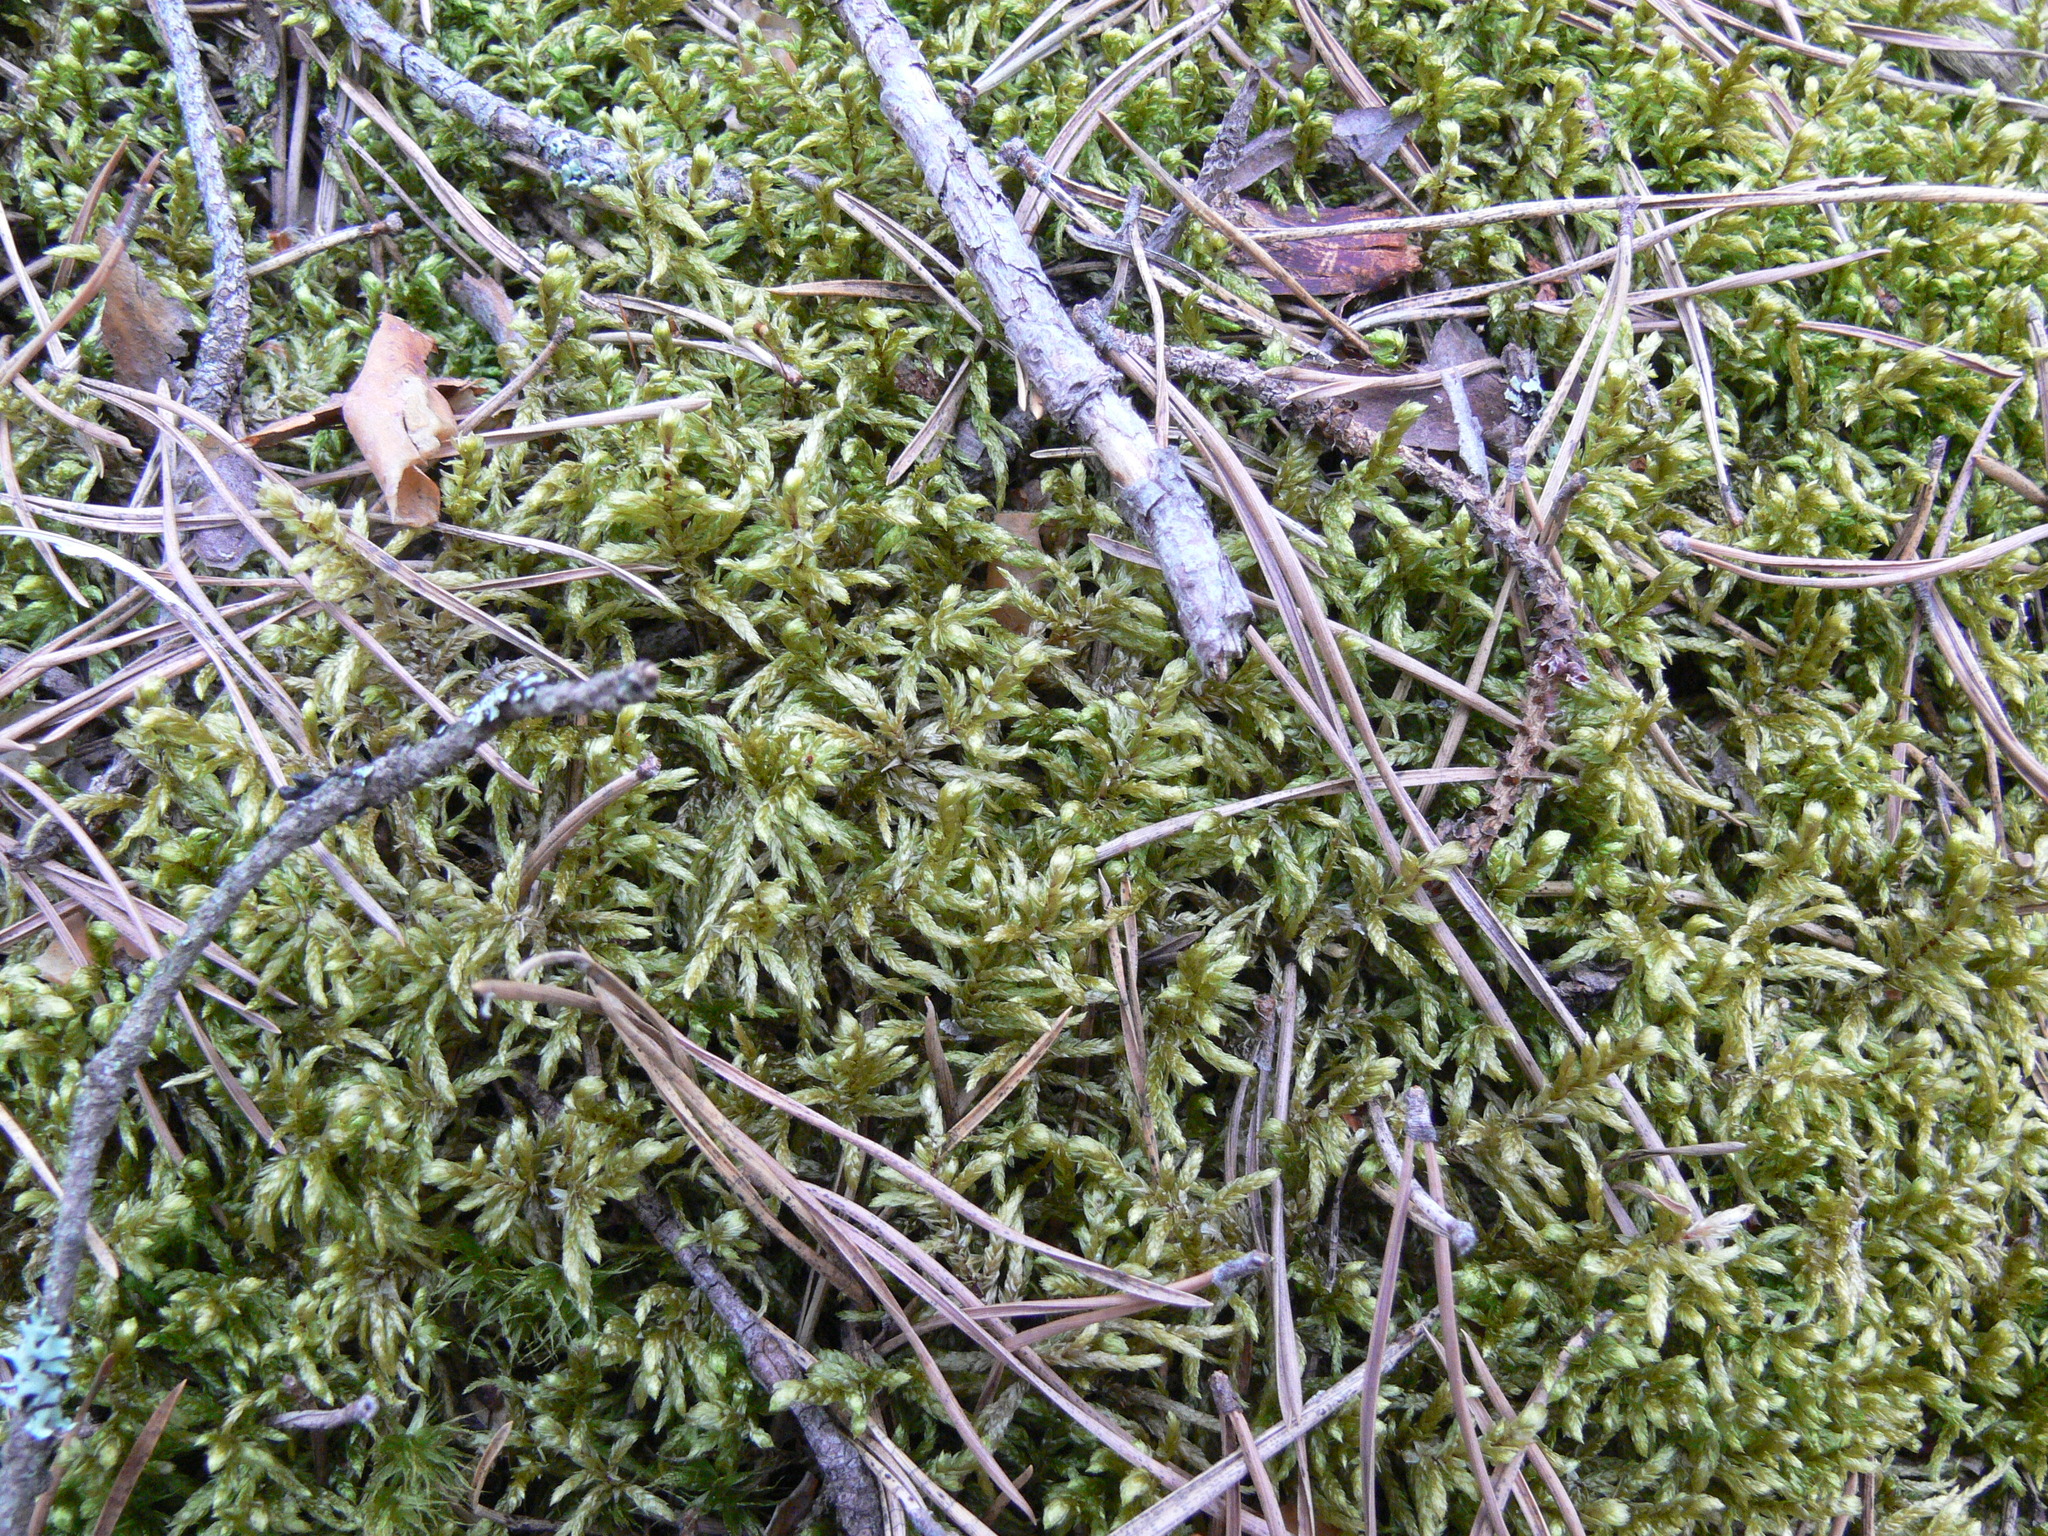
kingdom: Plantae
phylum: Bryophyta
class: Bryopsida
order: Hypnales
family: Hylocomiaceae
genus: Pleurozium
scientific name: Pleurozium schreberi
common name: Red-stemmed feather moss
